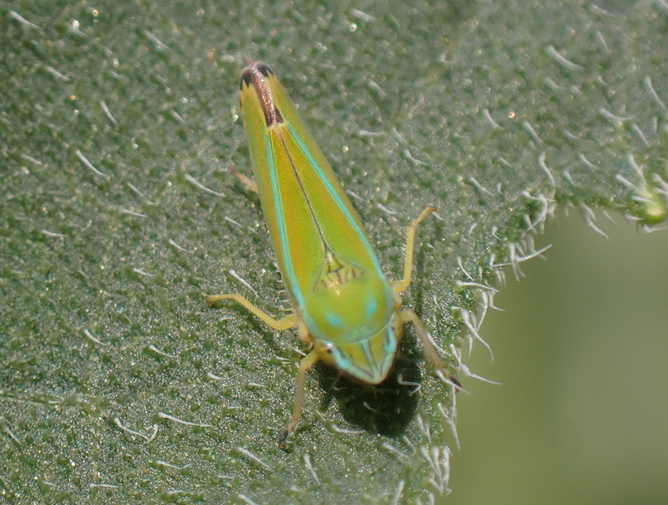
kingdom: Animalia
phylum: Arthropoda
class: Insecta
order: Hemiptera
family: Cicadellidae
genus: Graphocephala
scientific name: Graphocephala versuta
